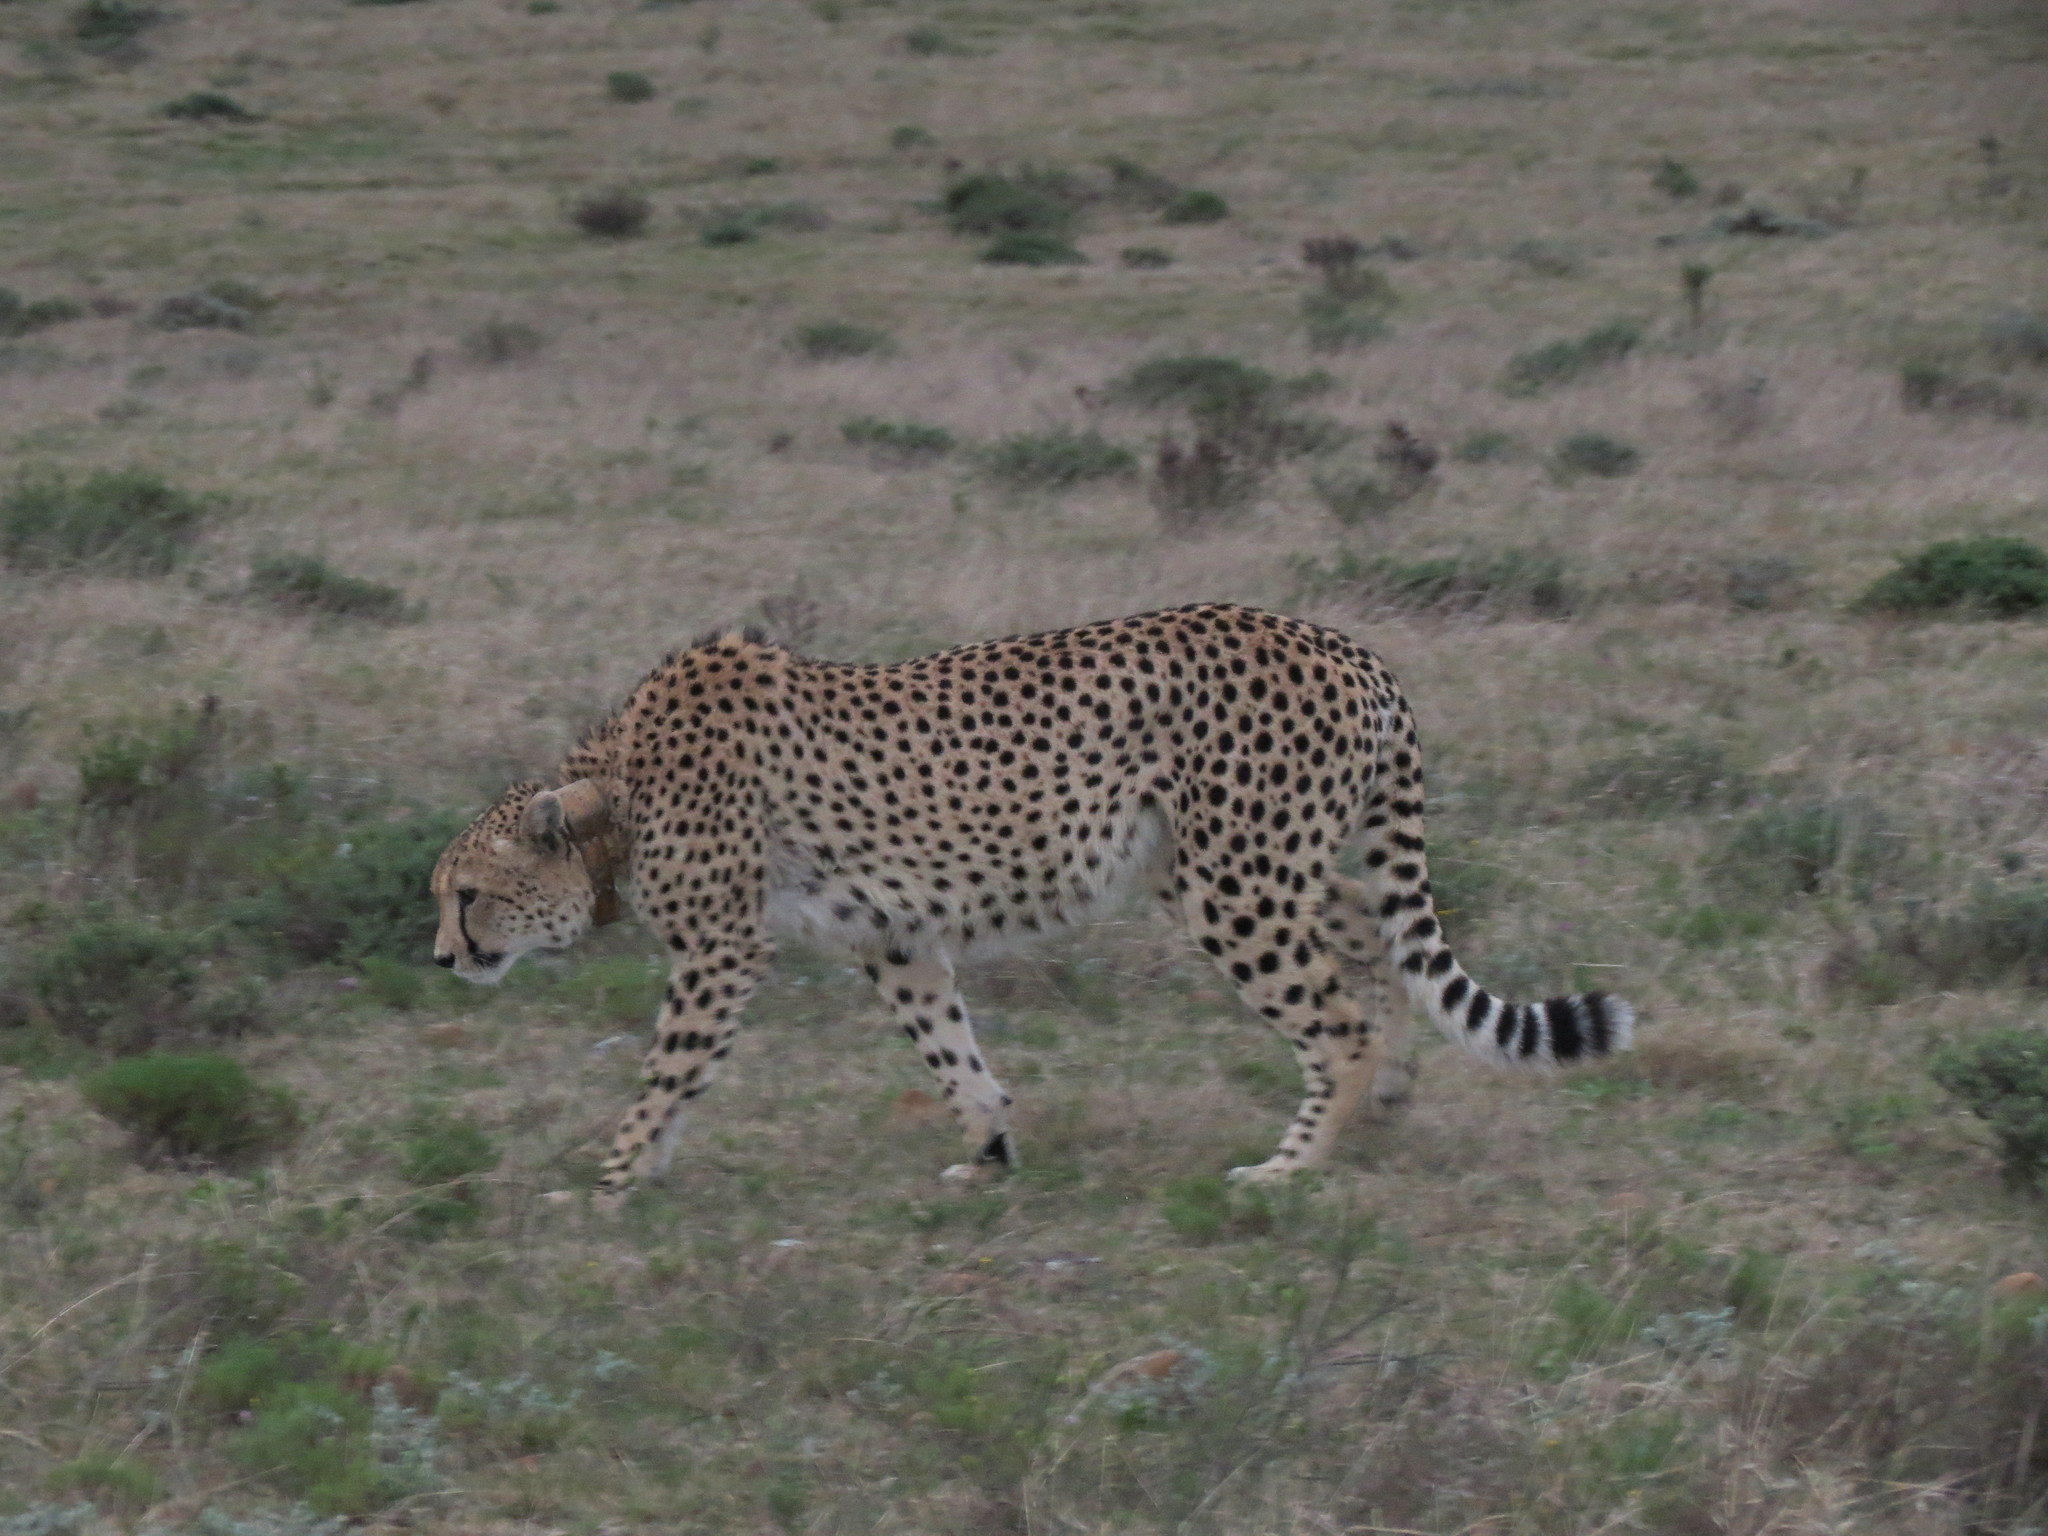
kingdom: Animalia
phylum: Chordata
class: Mammalia
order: Carnivora
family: Felidae
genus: Acinonyx
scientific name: Acinonyx jubatus
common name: Cheetah
